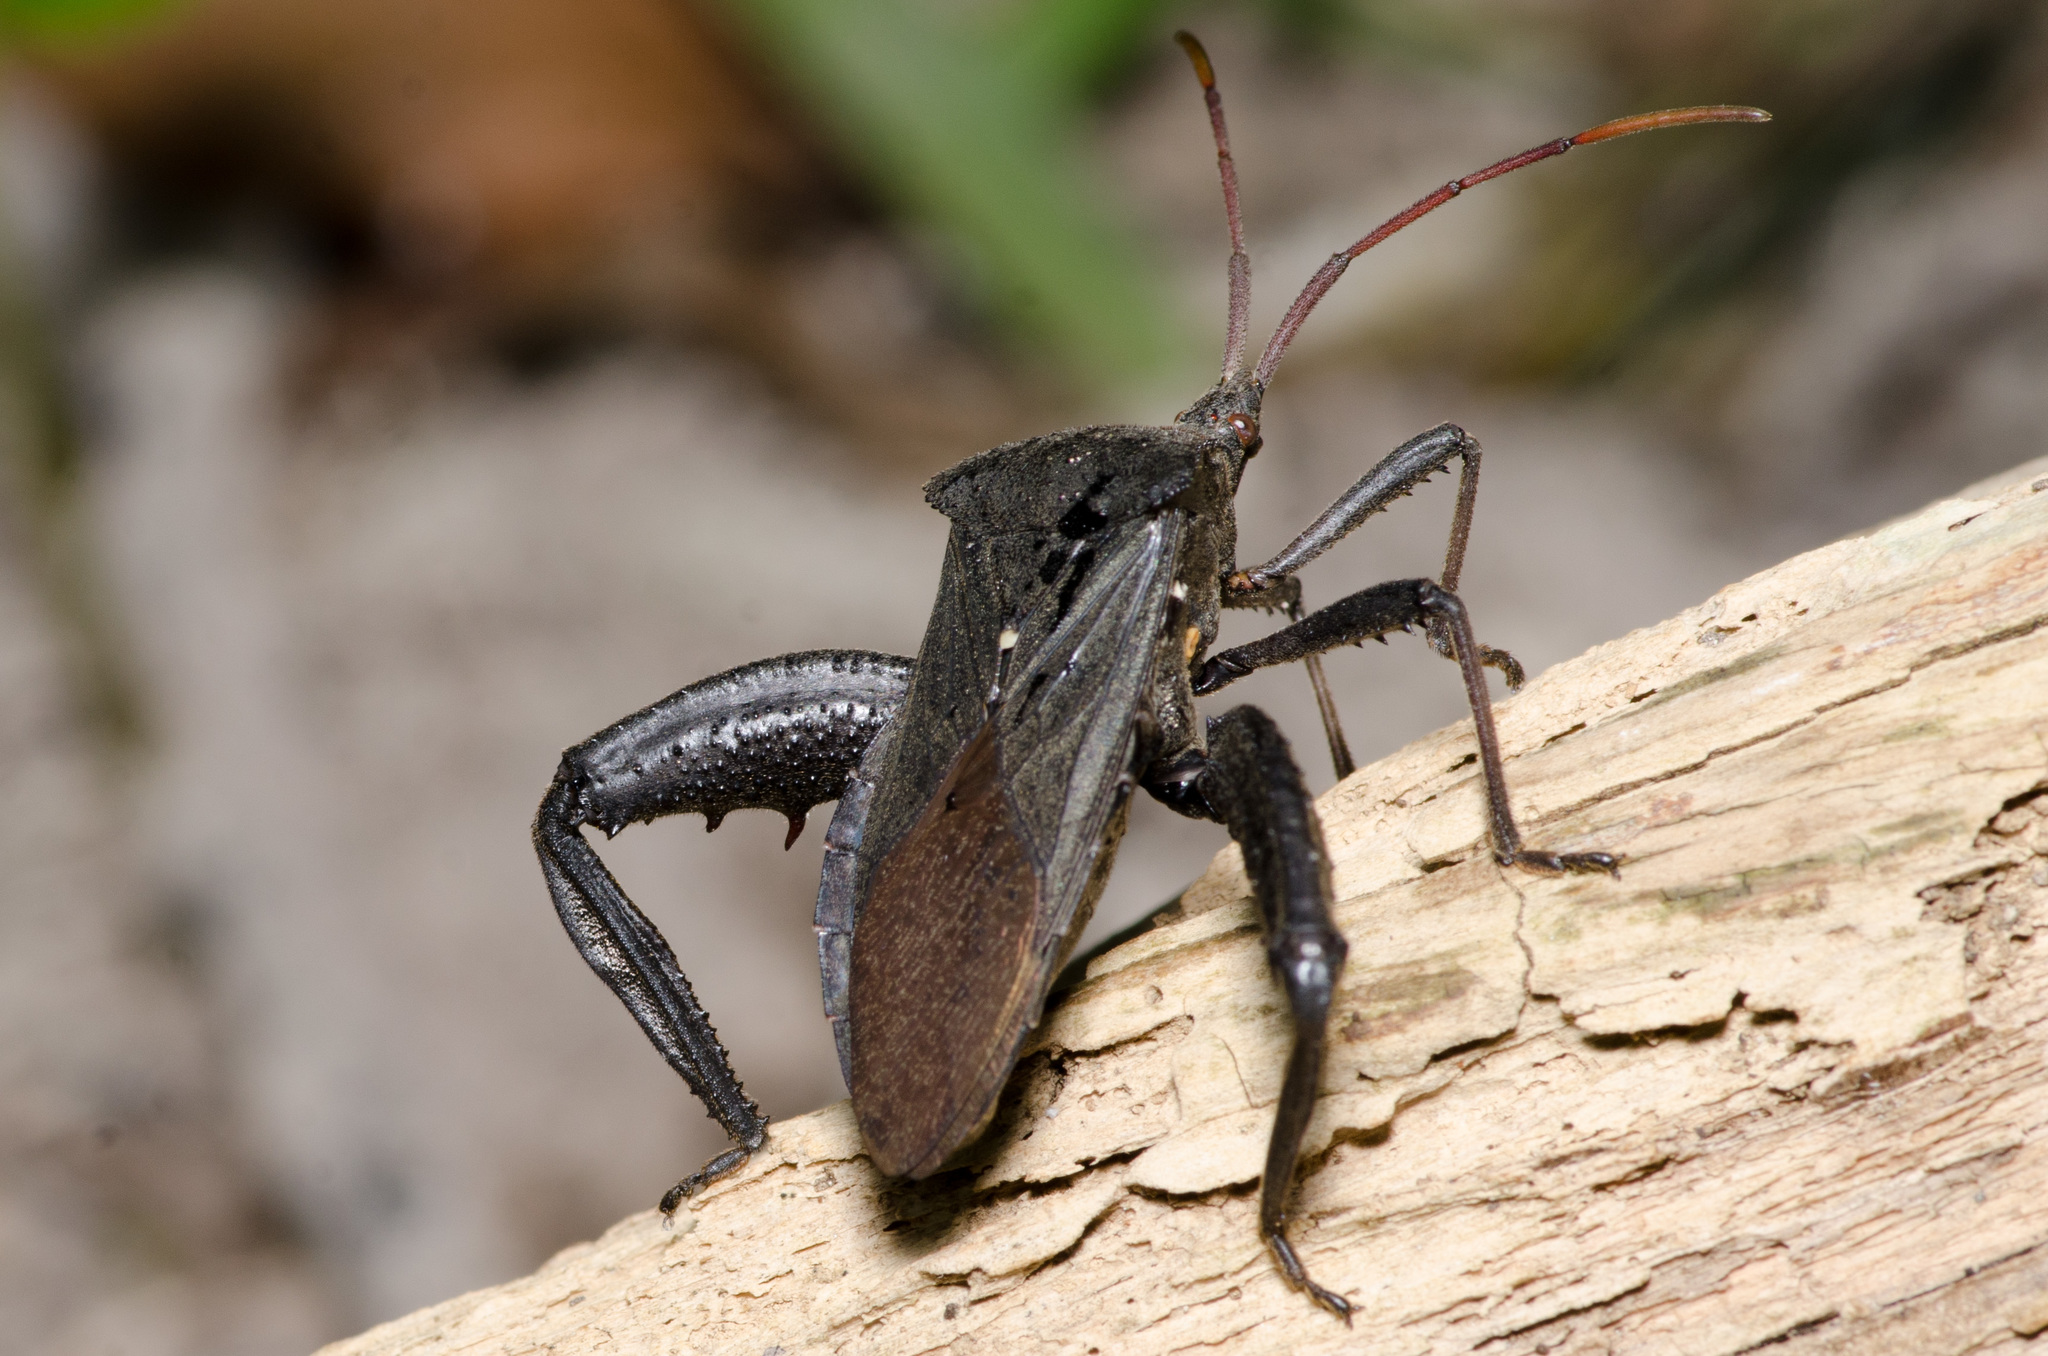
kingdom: Animalia
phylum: Arthropoda
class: Insecta
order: Hemiptera
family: Coreidae
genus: Acanthocephala
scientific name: Acanthocephala femorata
